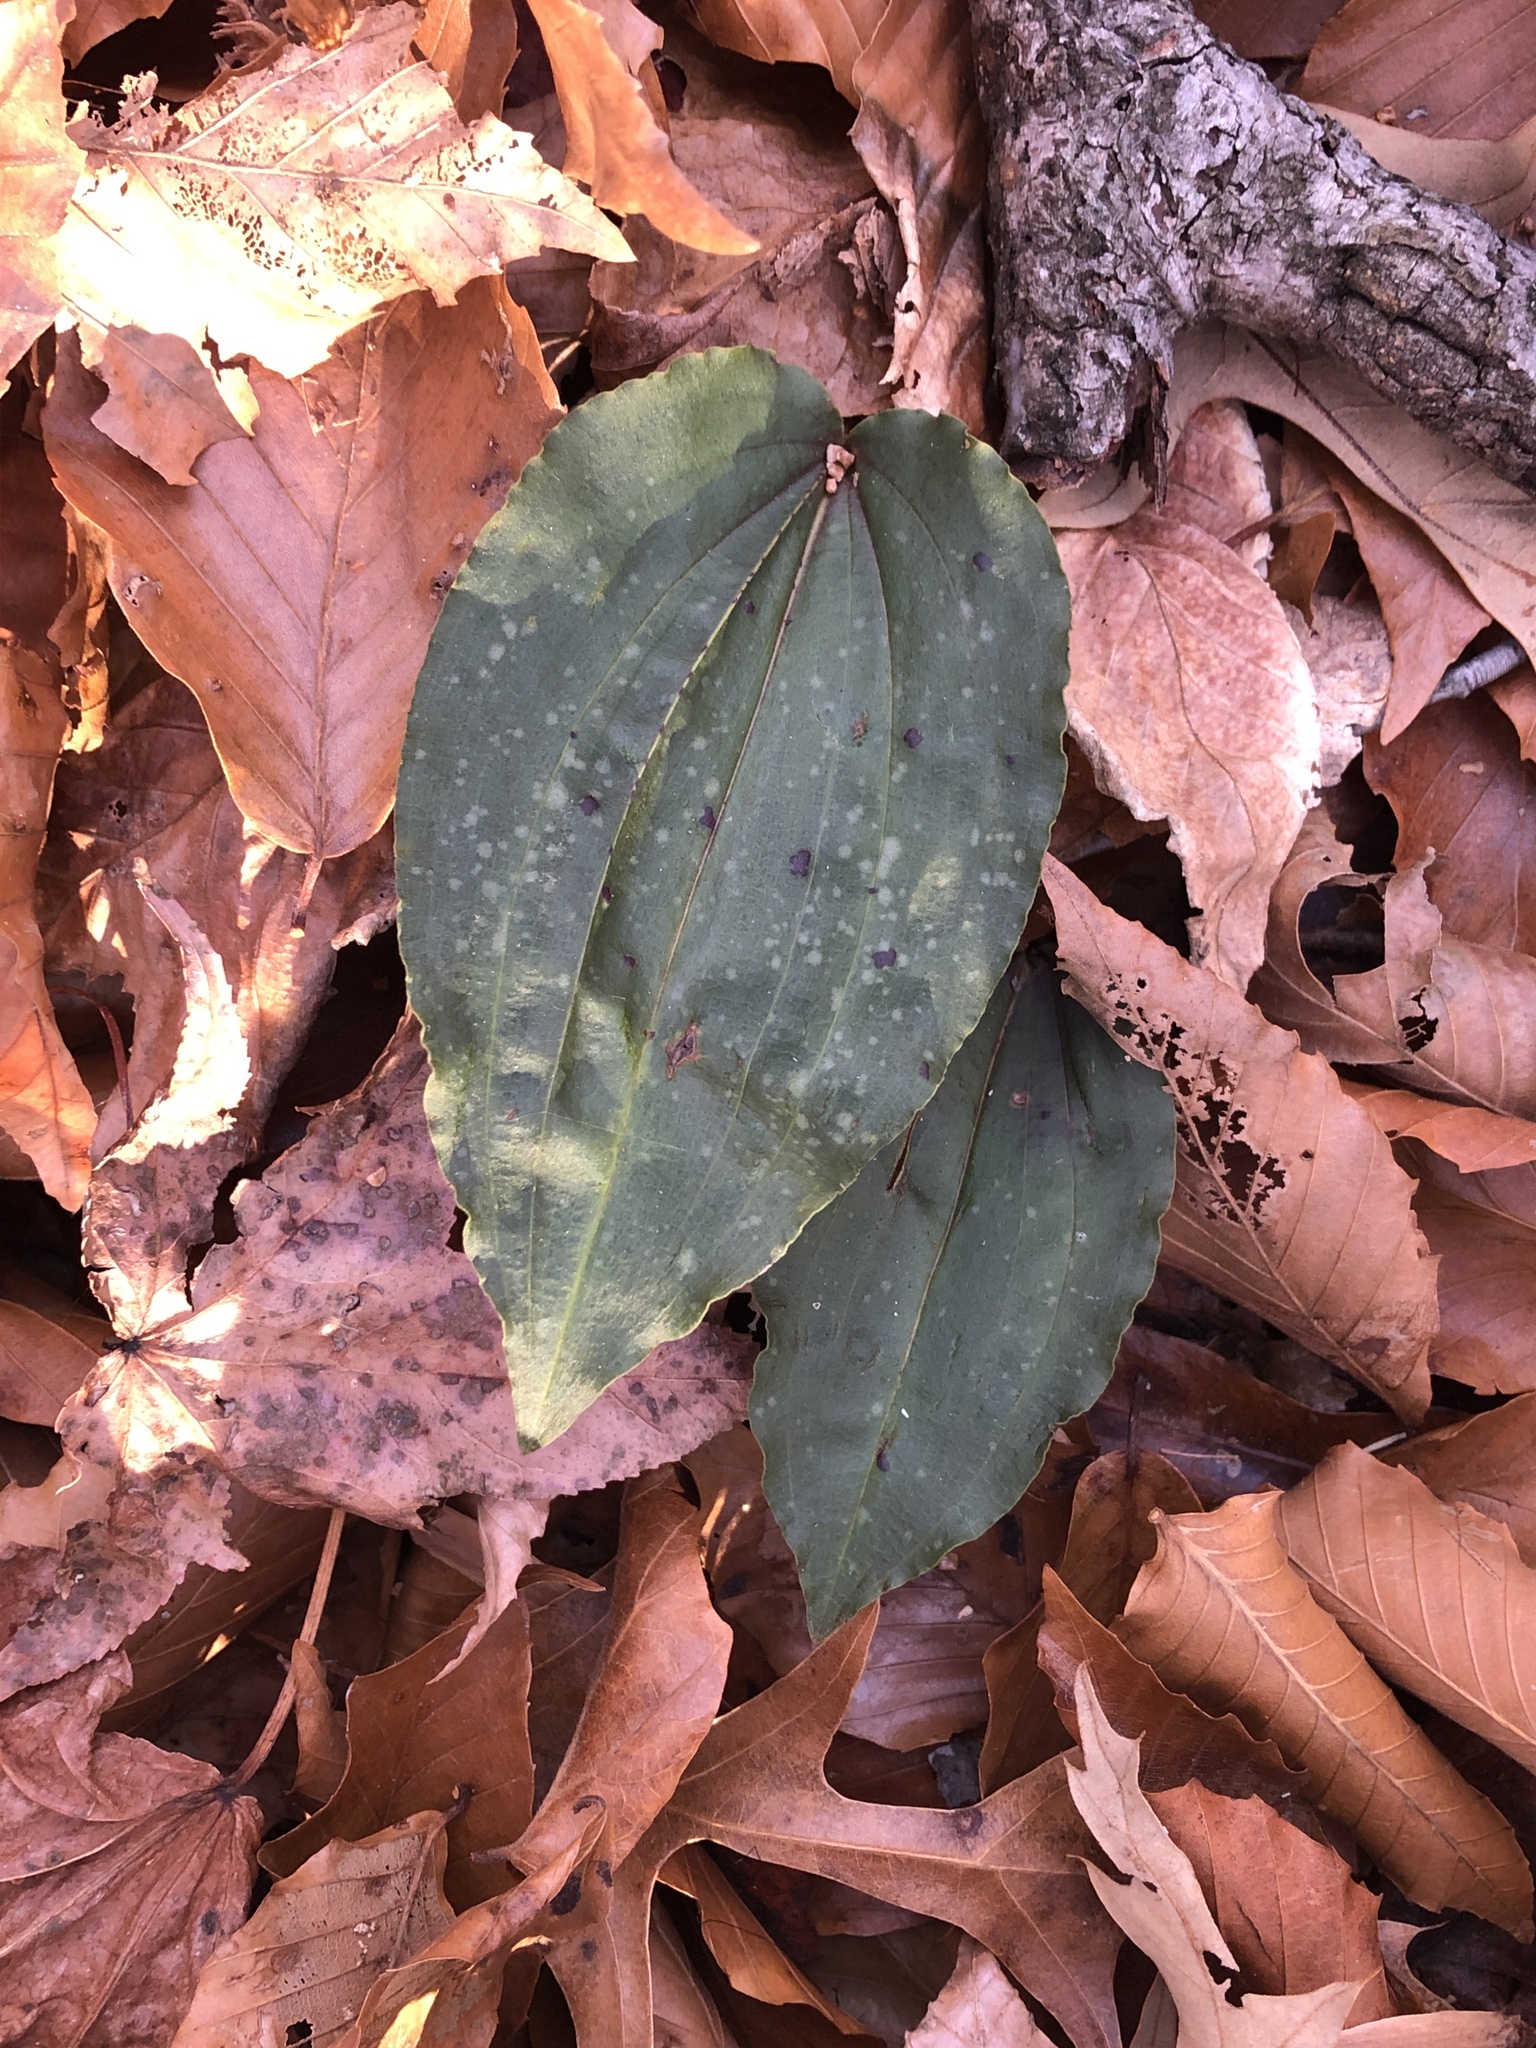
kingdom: Plantae
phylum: Tracheophyta
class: Liliopsida
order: Asparagales
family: Orchidaceae
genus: Tipularia
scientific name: Tipularia discolor
